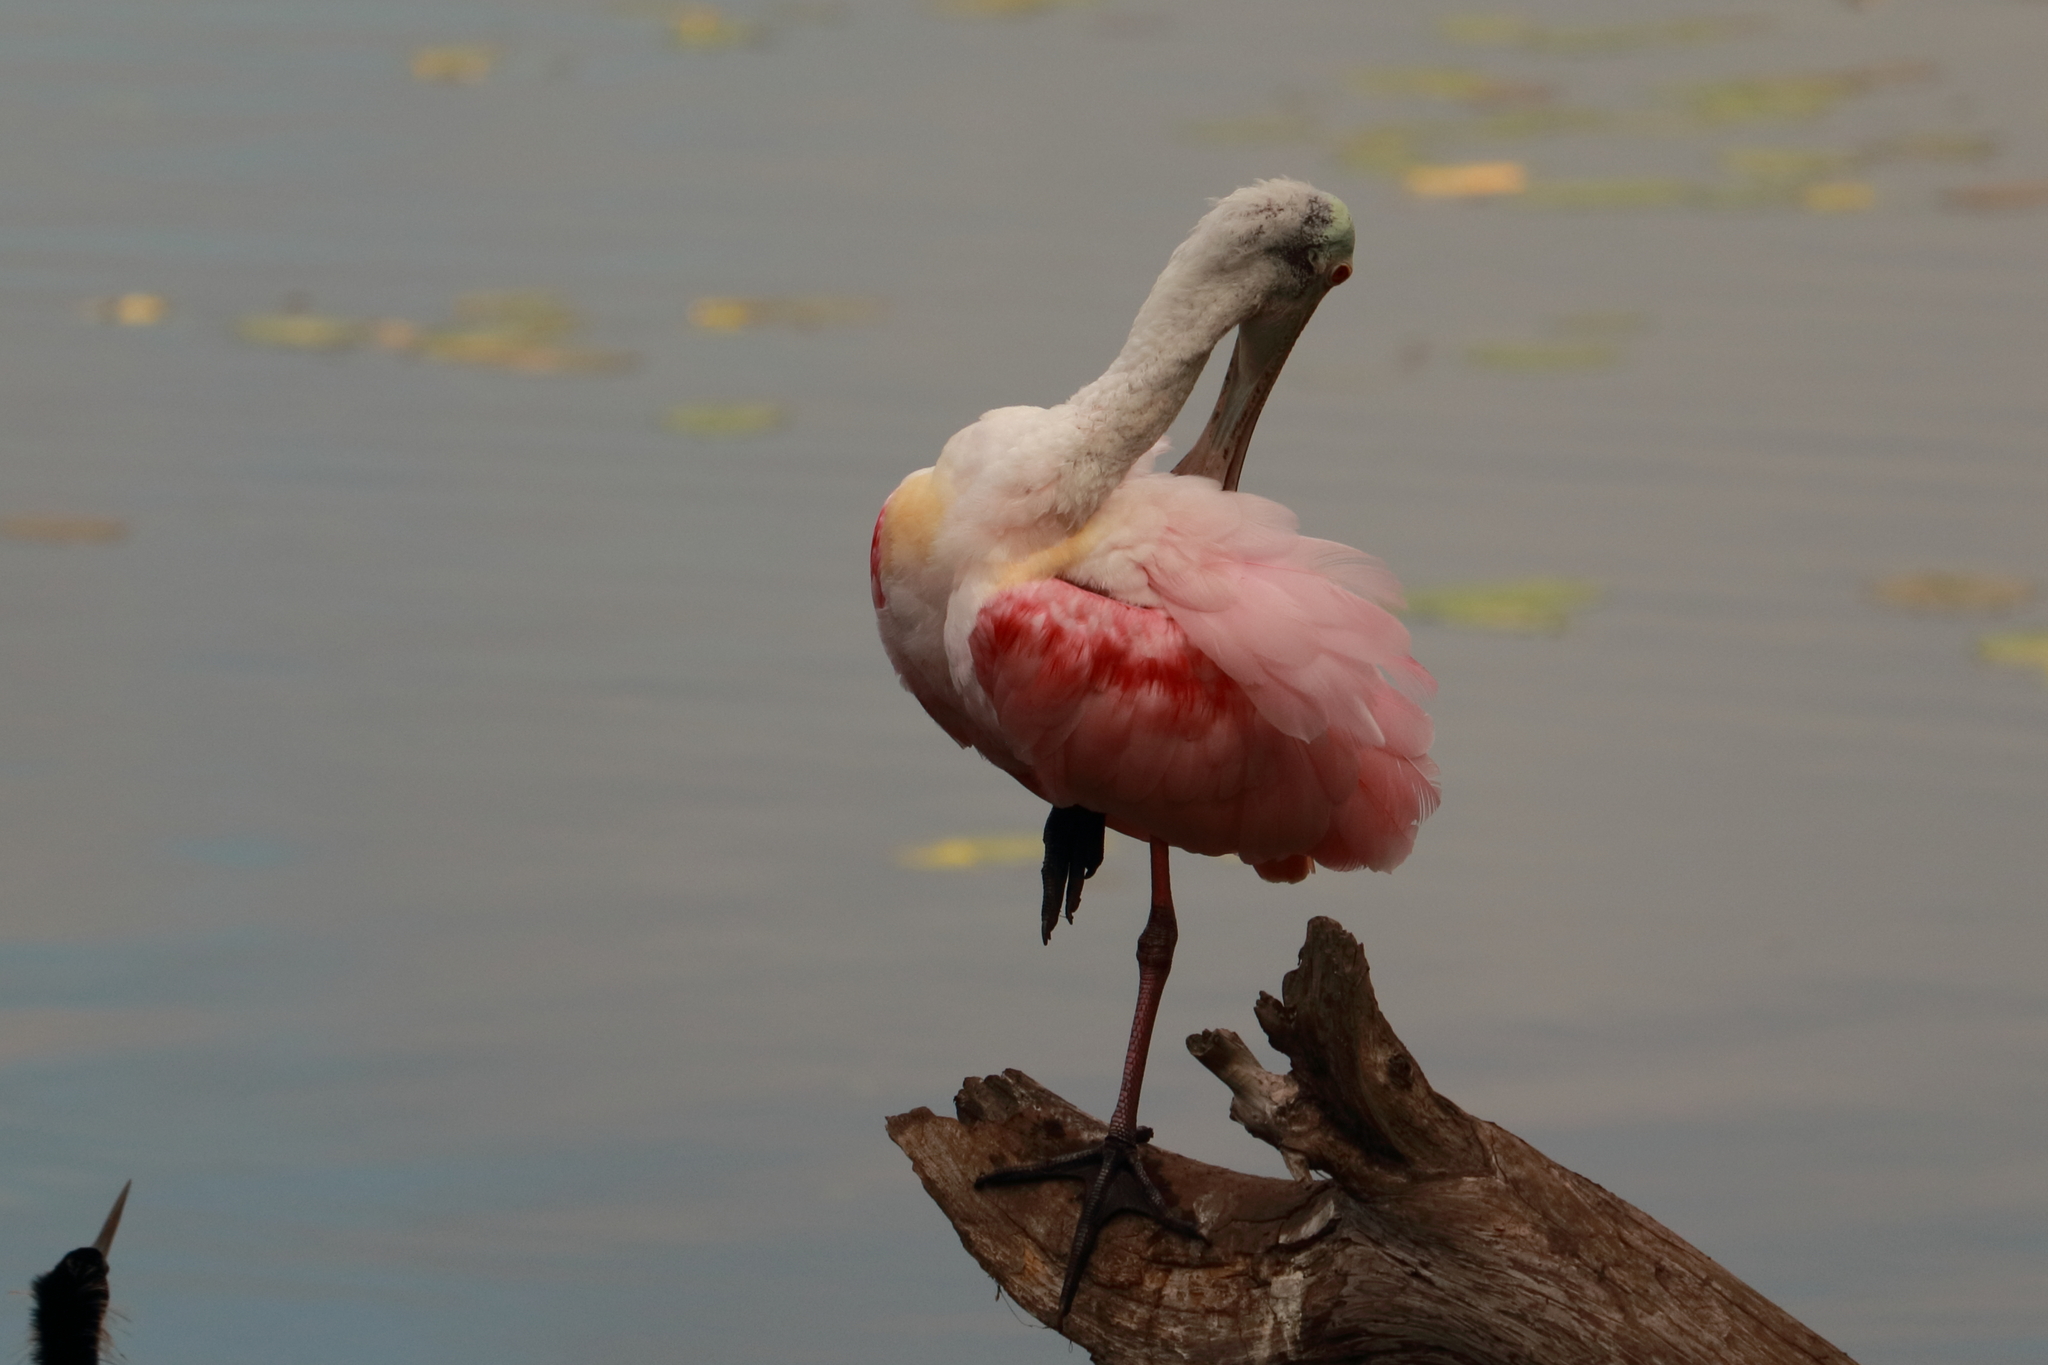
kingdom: Animalia
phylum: Chordata
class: Aves
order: Pelecaniformes
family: Threskiornithidae
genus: Platalea
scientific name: Platalea ajaja
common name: Roseate spoonbill
